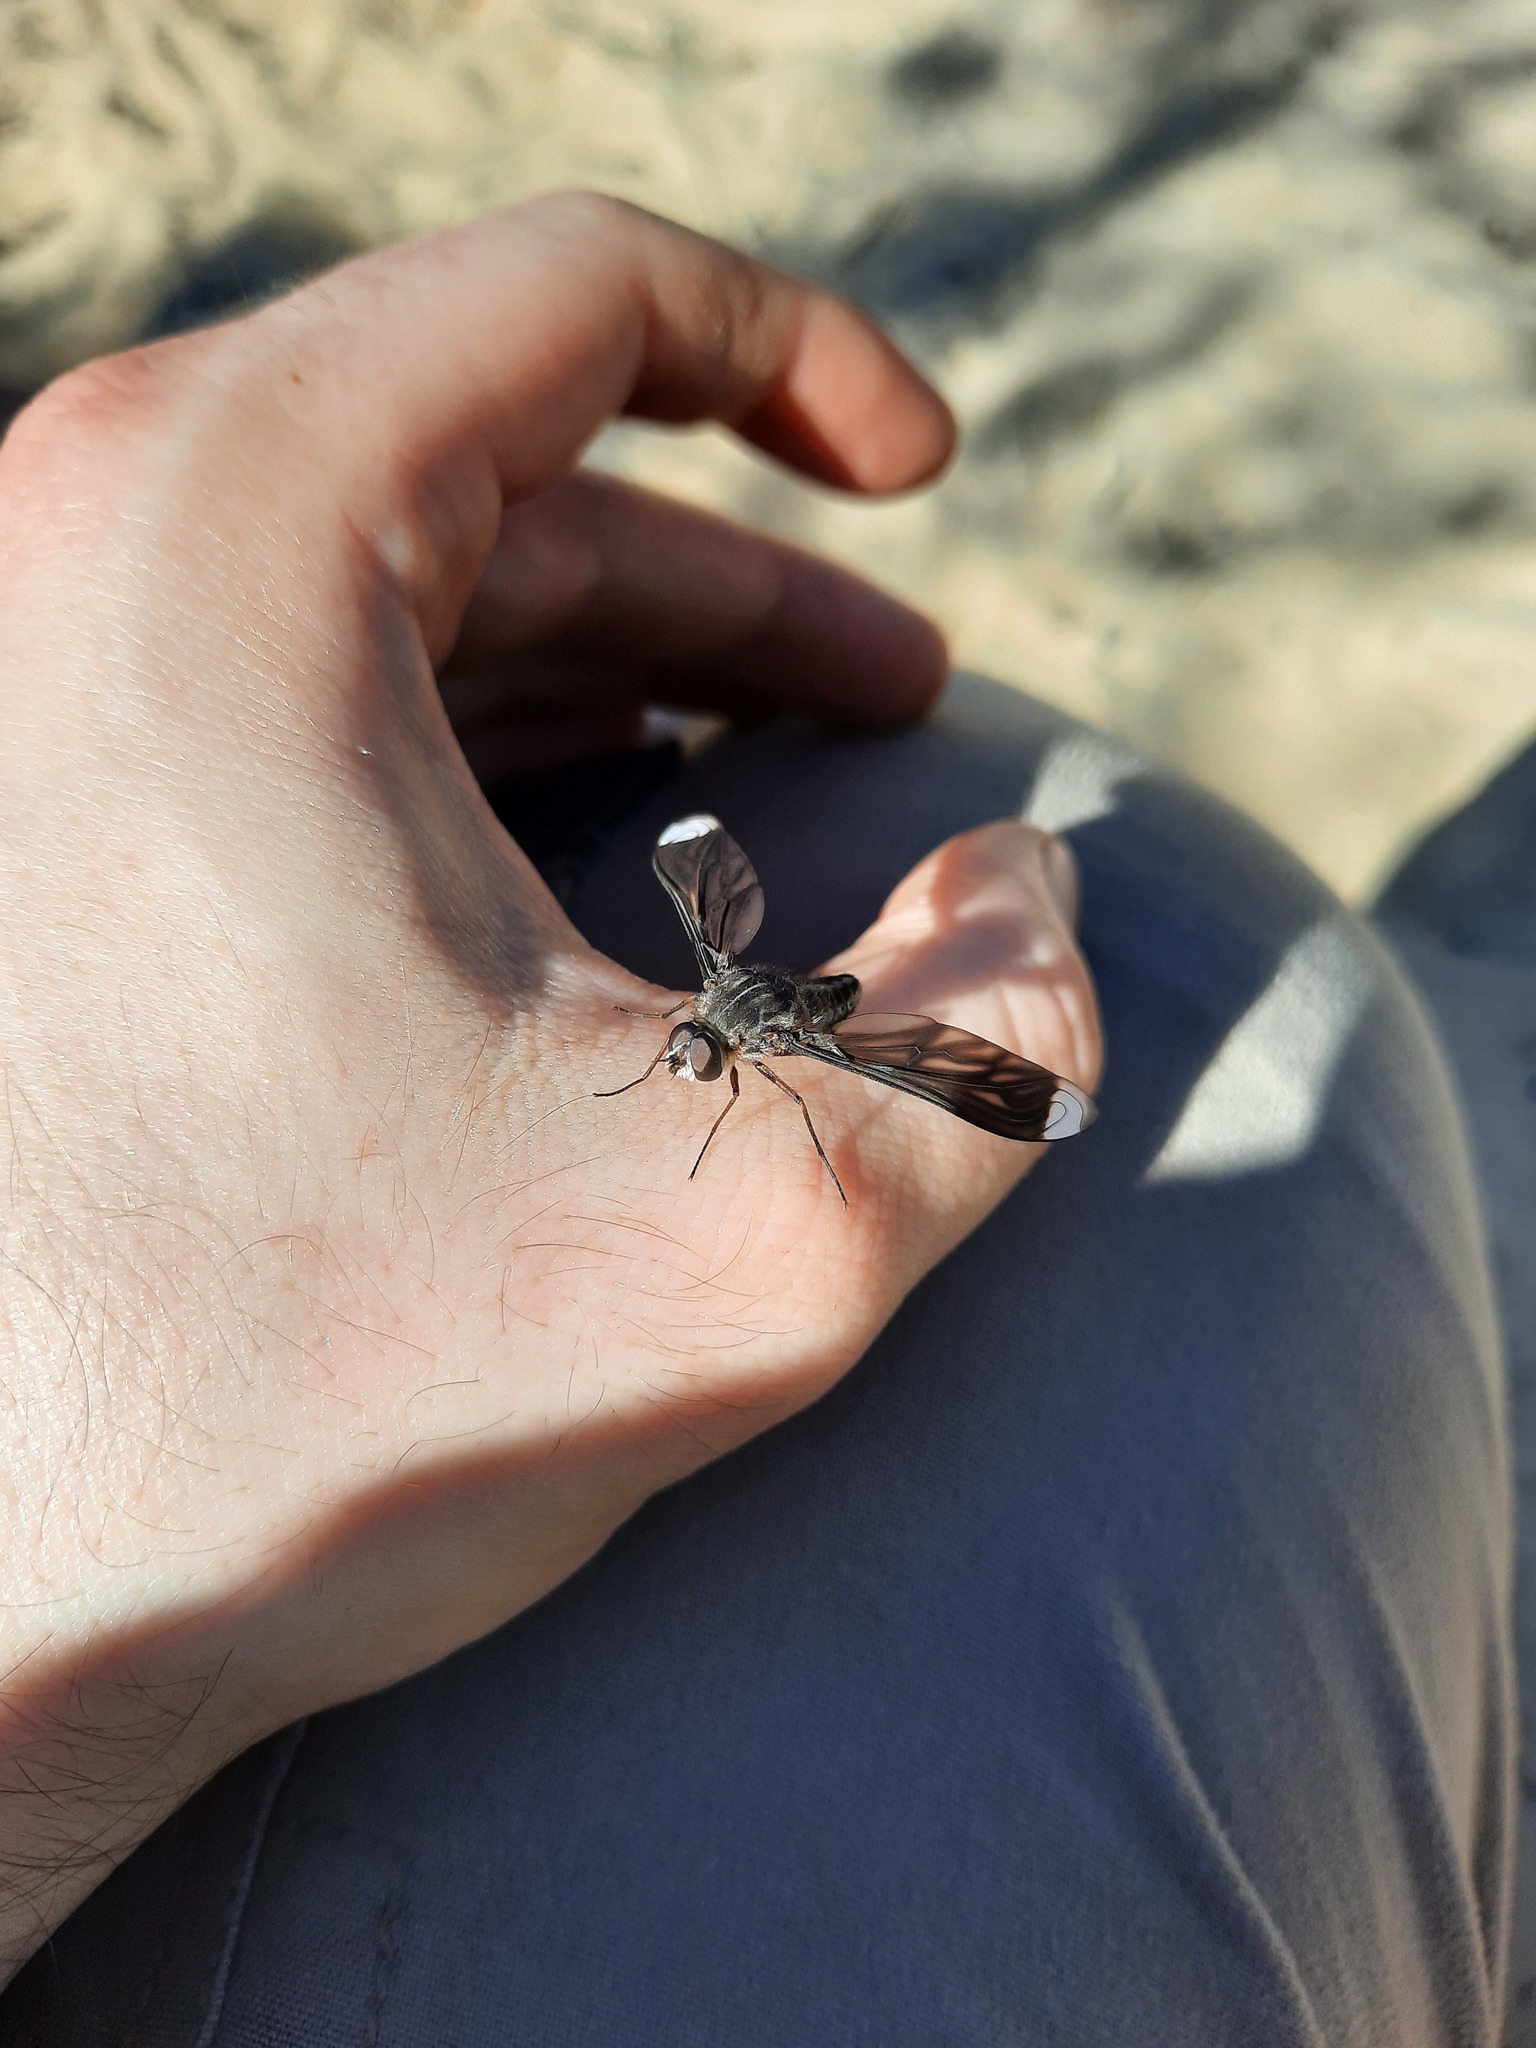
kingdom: Animalia
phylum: Arthropoda
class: Insecta
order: Diptera
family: Bombyliidae
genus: Comptosia
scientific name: Comptosia vittata
